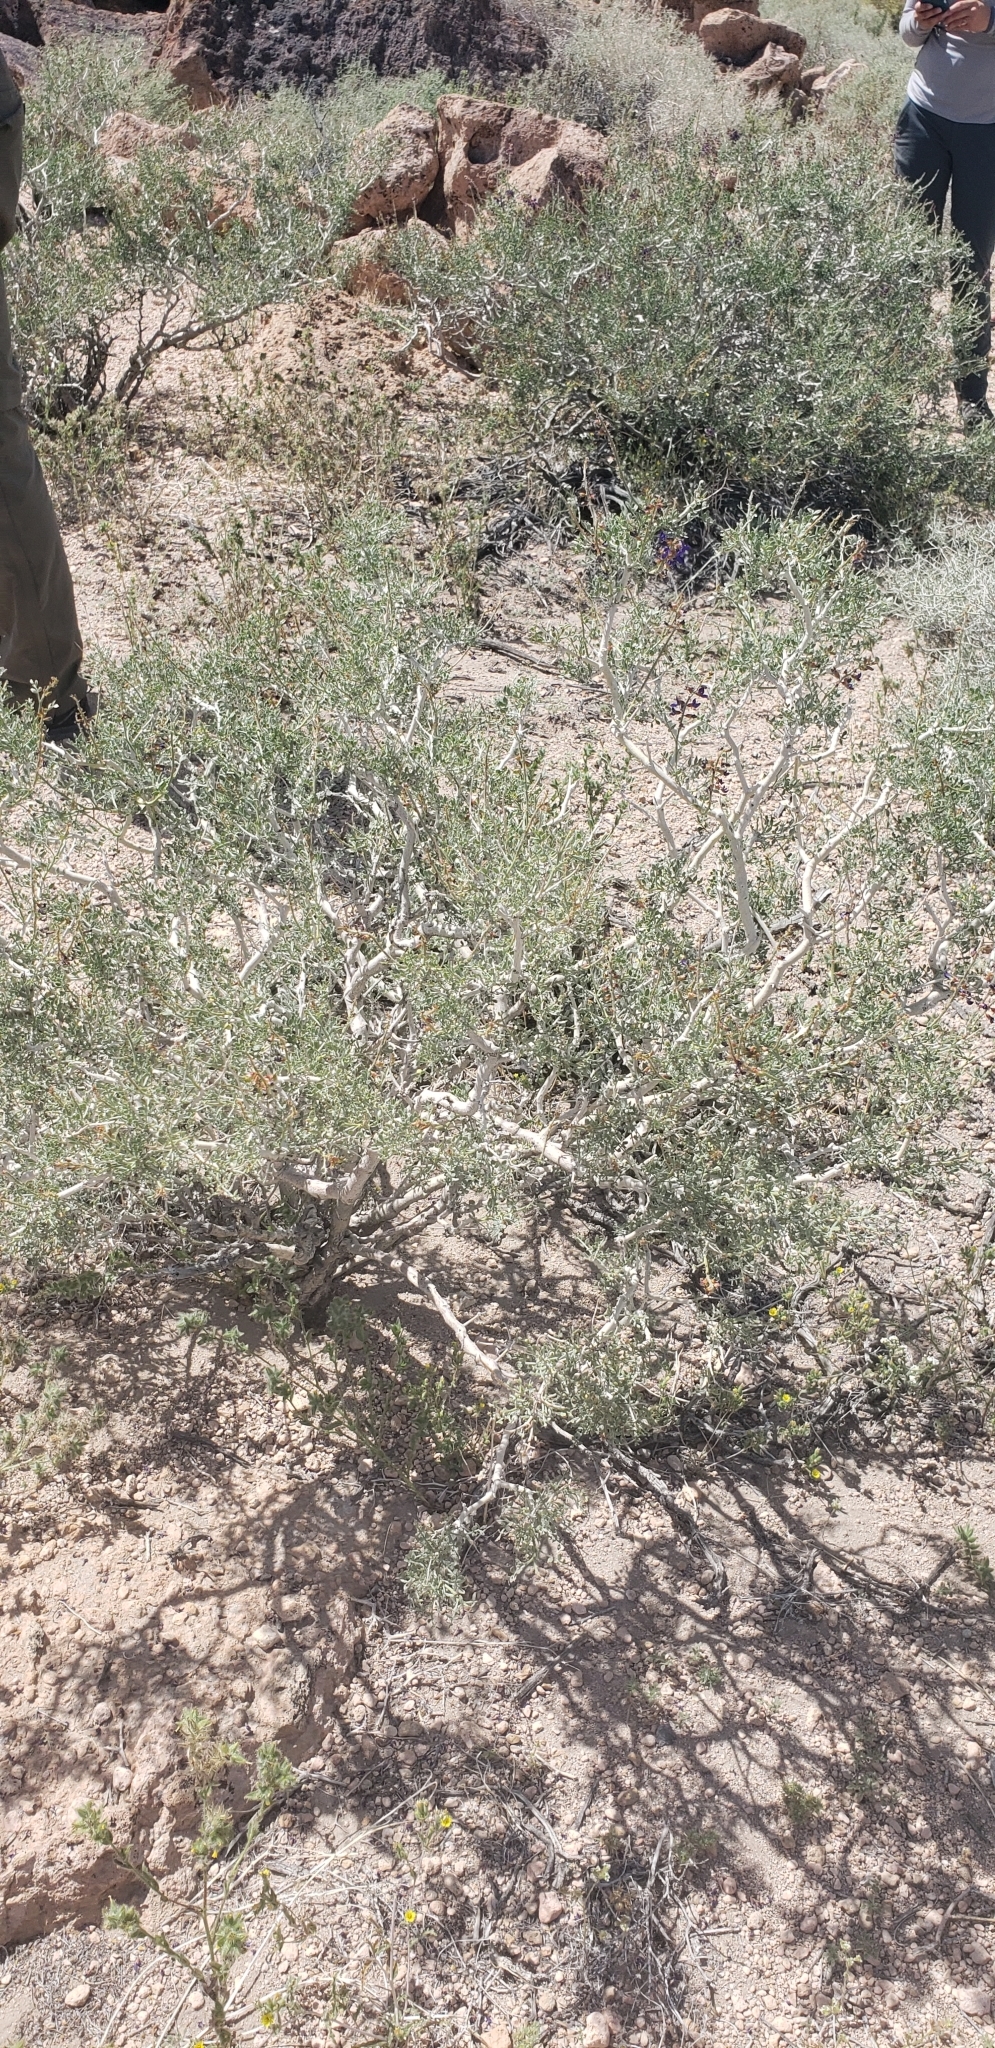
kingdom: Plantae
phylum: Tracheophyta
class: Magnoliopsida
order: Fabales
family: Fabaceae
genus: Psorothamnus
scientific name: Psorothamnus arborescens
